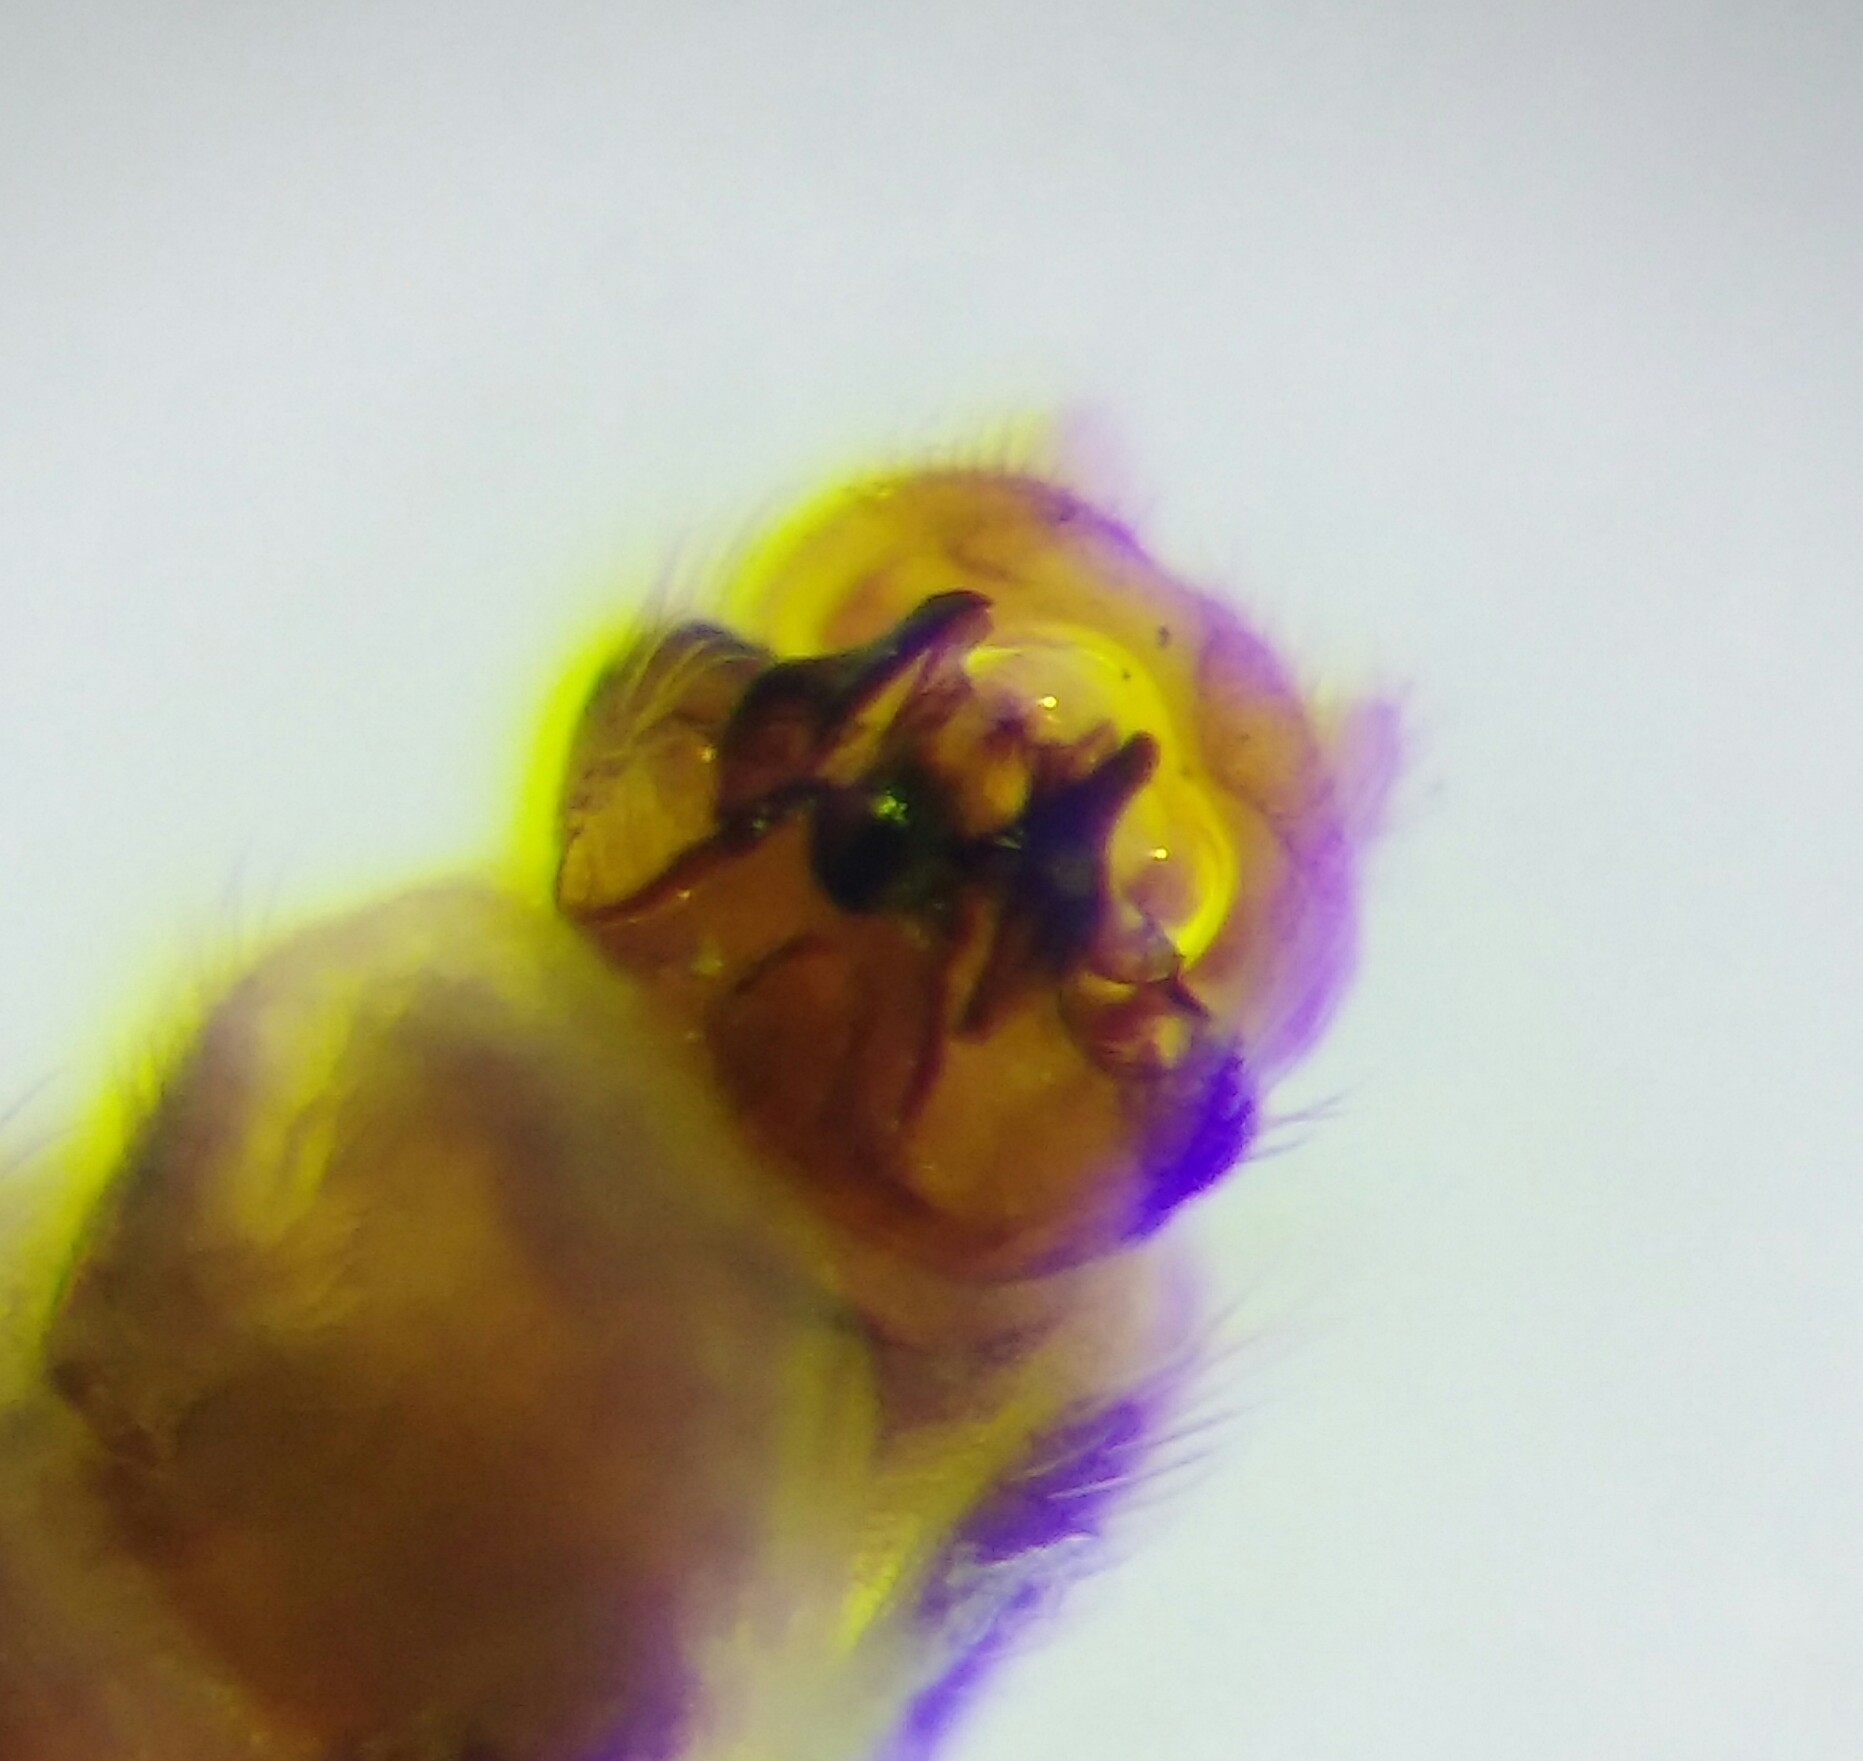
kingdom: Animalia
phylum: Arthropoda
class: Insecta
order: Diptera
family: Anisopodidae
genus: Sylvicola
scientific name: Sylvicola cinctus
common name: Wood gnat
